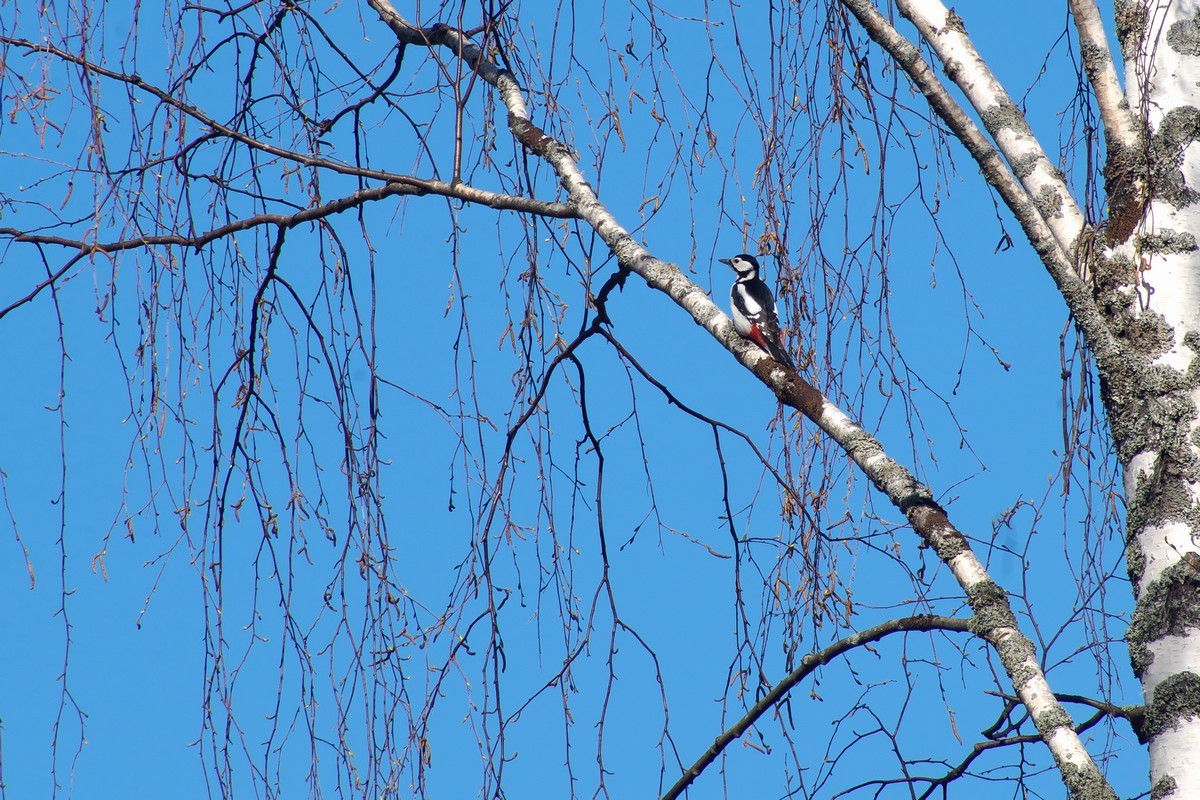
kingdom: Animalia
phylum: Chordata
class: Aves
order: Piciformes
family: Picidae
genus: Dendrocopos
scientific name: Dendrocopos major
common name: Great spotted woodpecker
